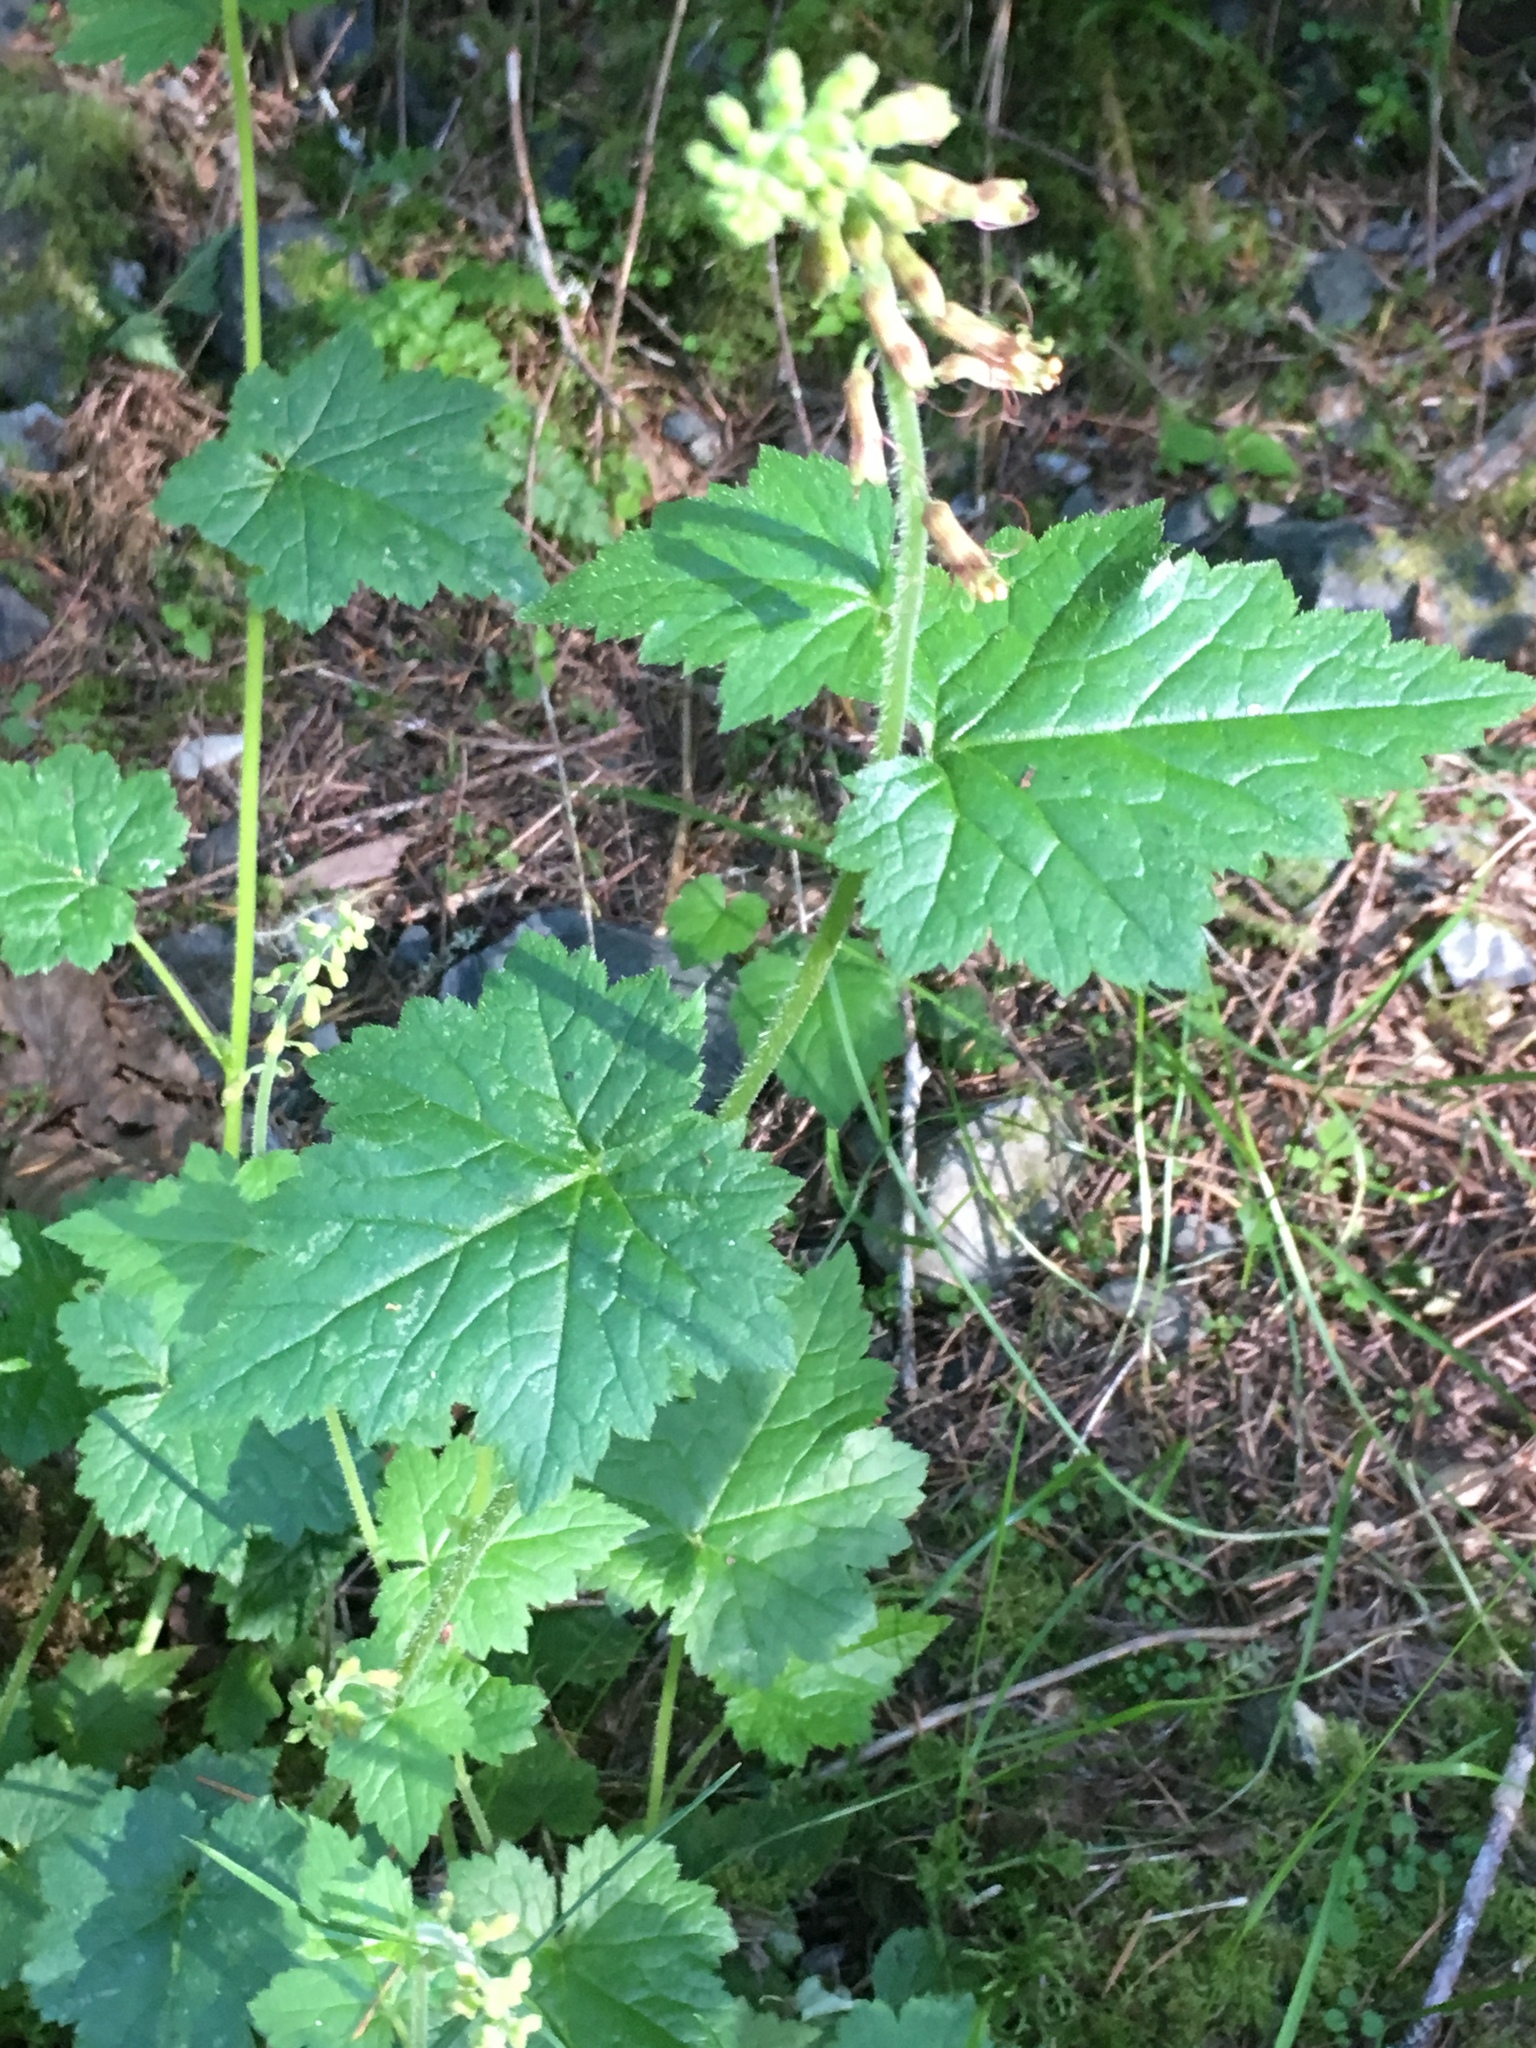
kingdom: Plantae
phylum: Tracheophyta
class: Magnoliopsida
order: Saxifragales
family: Saxifragaceae
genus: Tolmiea
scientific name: Tolmiea menziesii
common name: Pick-a-back-plant
